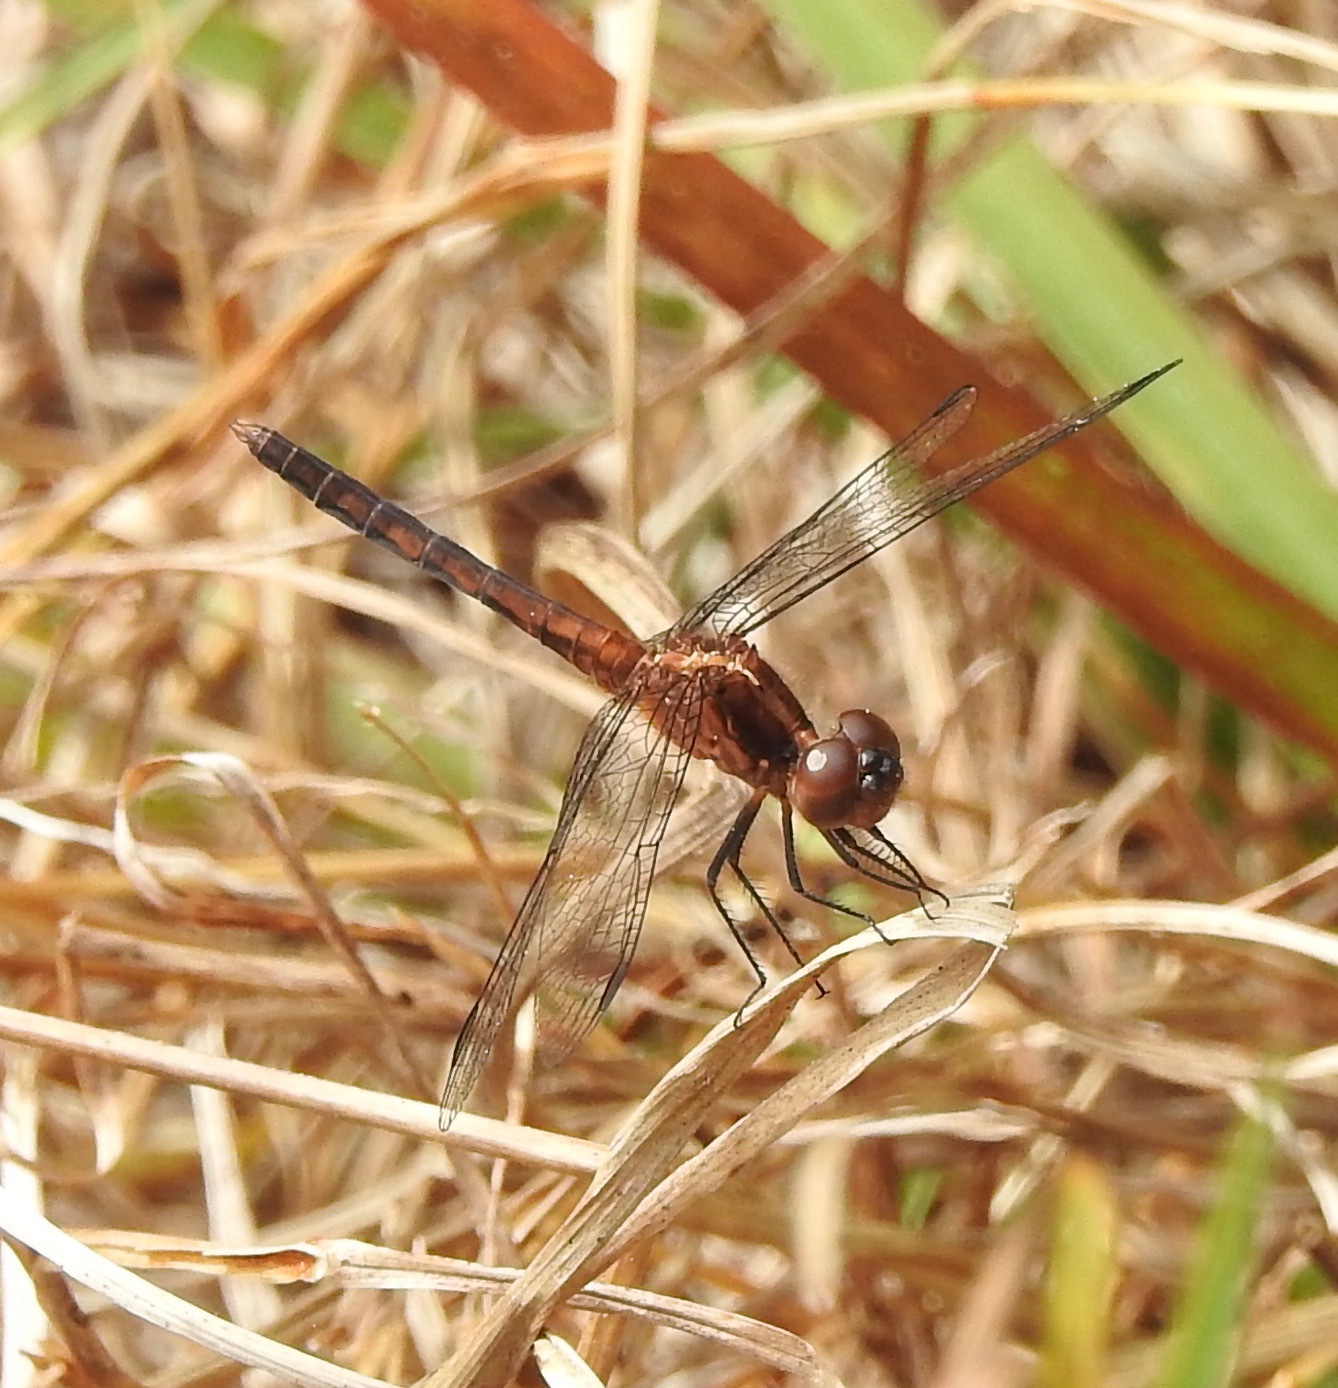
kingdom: Animalia
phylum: Arthropoda
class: Insecta
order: Odonata
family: Libellulidae
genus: Erythrodiplax
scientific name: Erythrodiplax minuscula
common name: Little blue dragonlet
